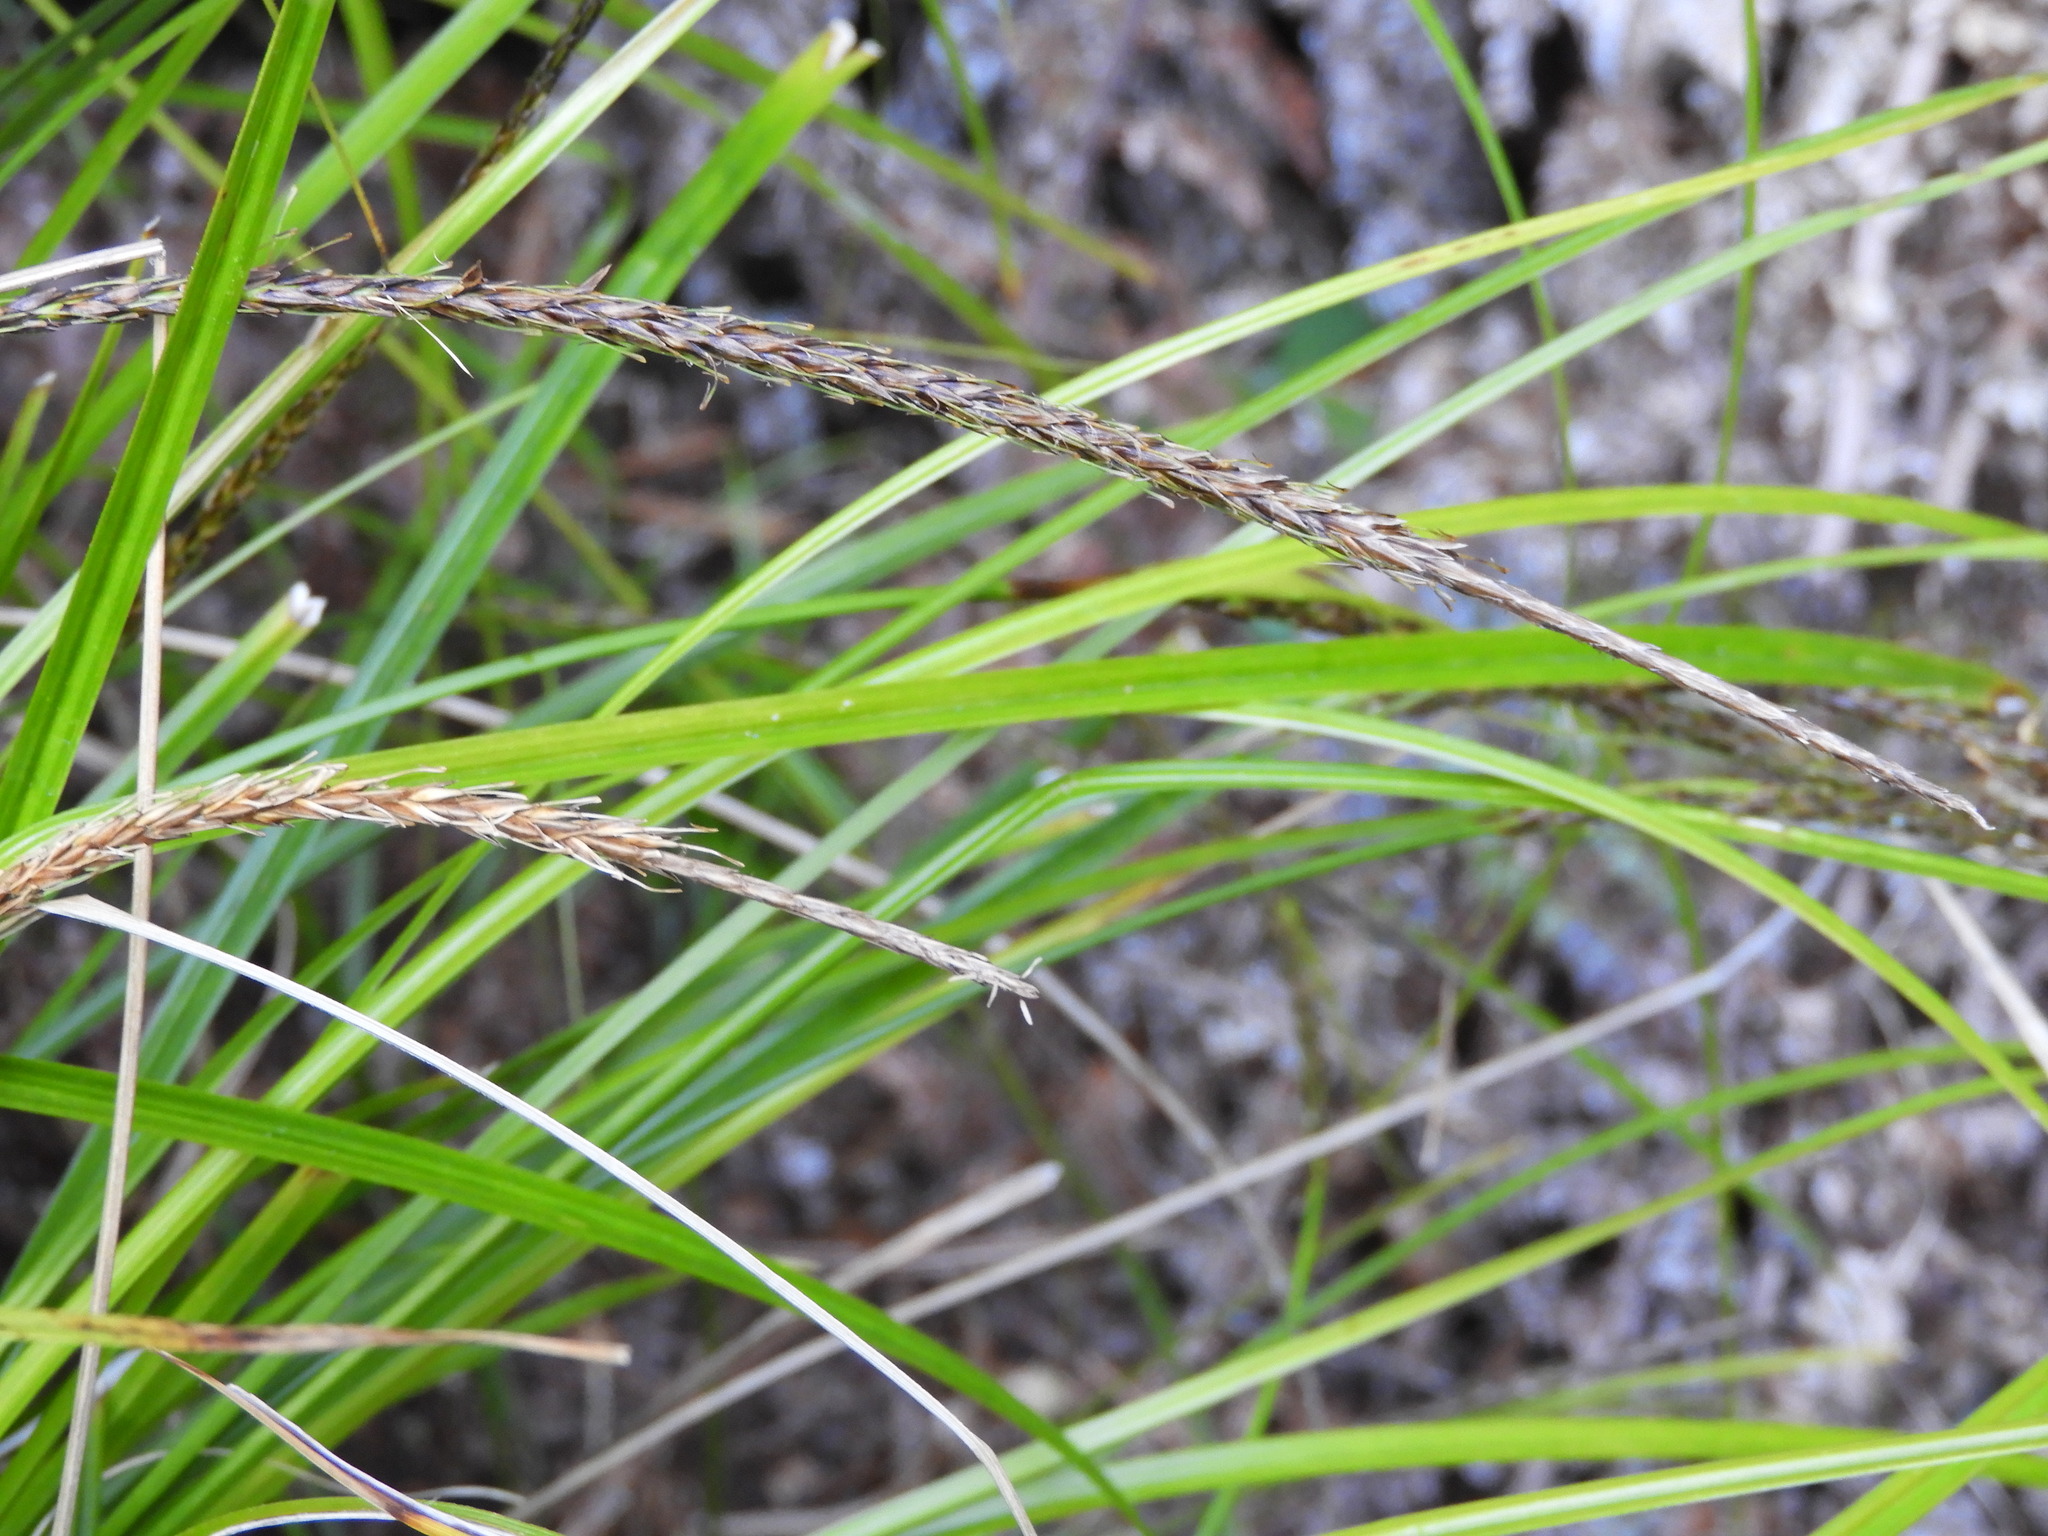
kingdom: Plantae
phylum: Tracheophyta
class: Liliopsida
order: Poales
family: Cyperaceae
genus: Carex
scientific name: Carex uncinata
